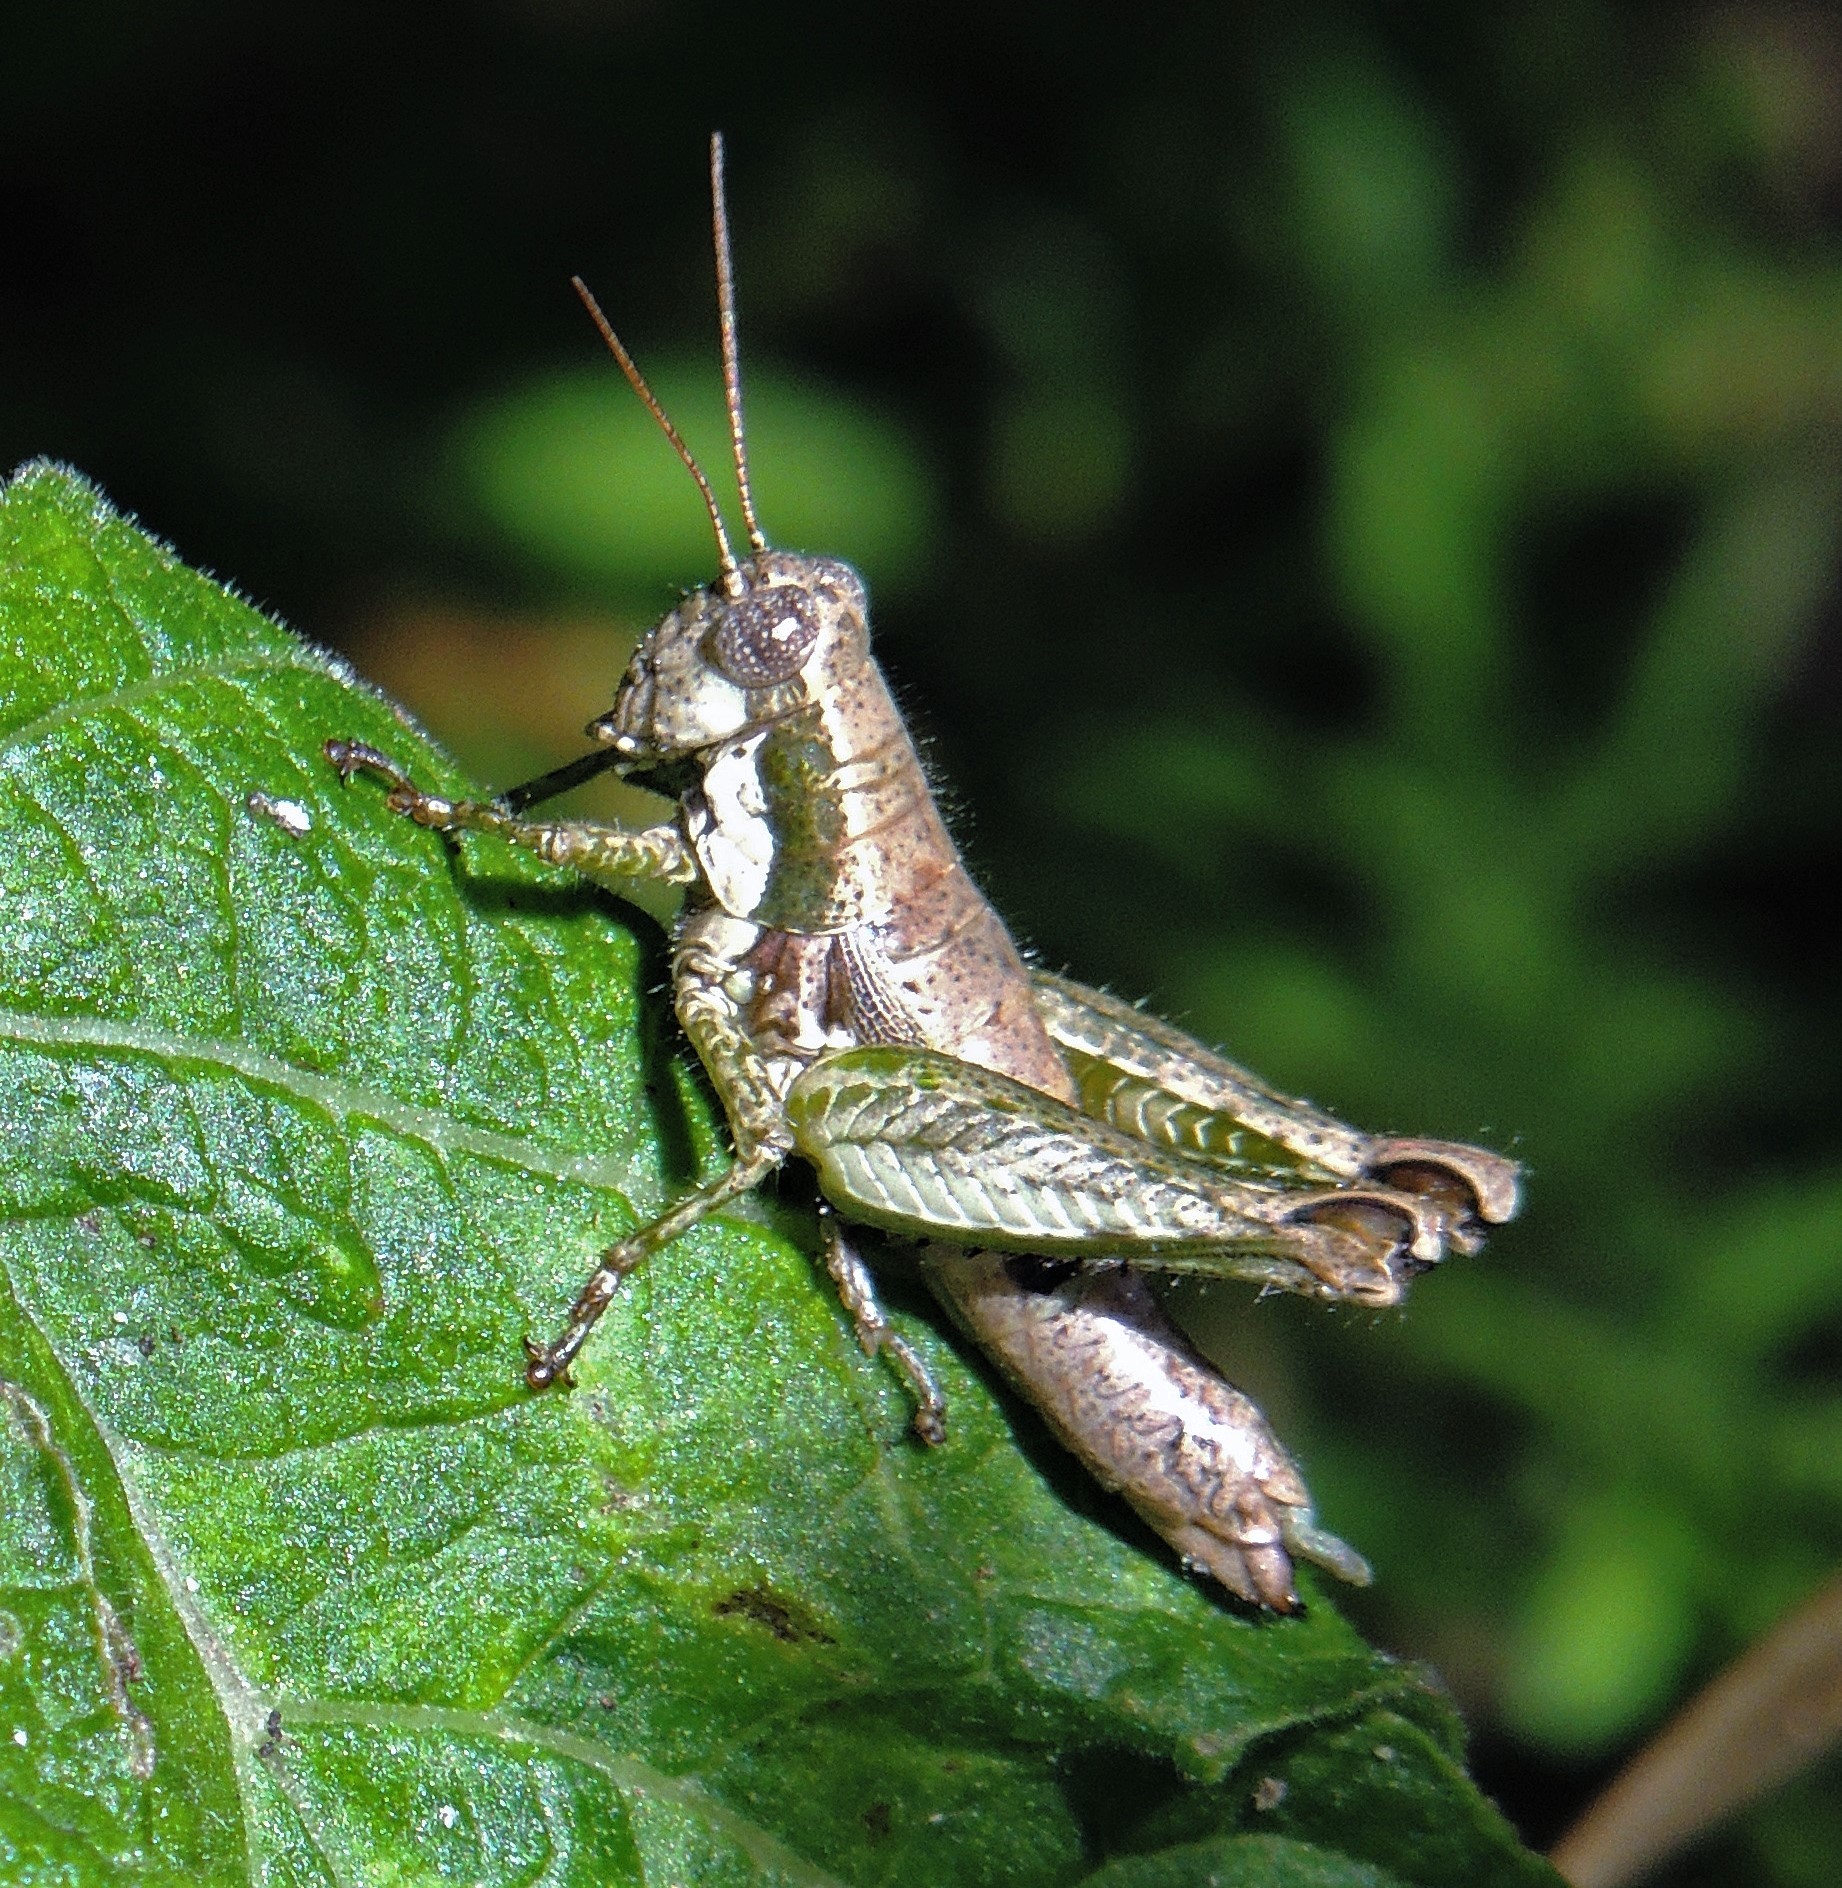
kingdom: Animalia
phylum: Arthropoda
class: Insecta
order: Orthoptera
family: Acrididae
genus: Apacris
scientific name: Apacris aberrans
